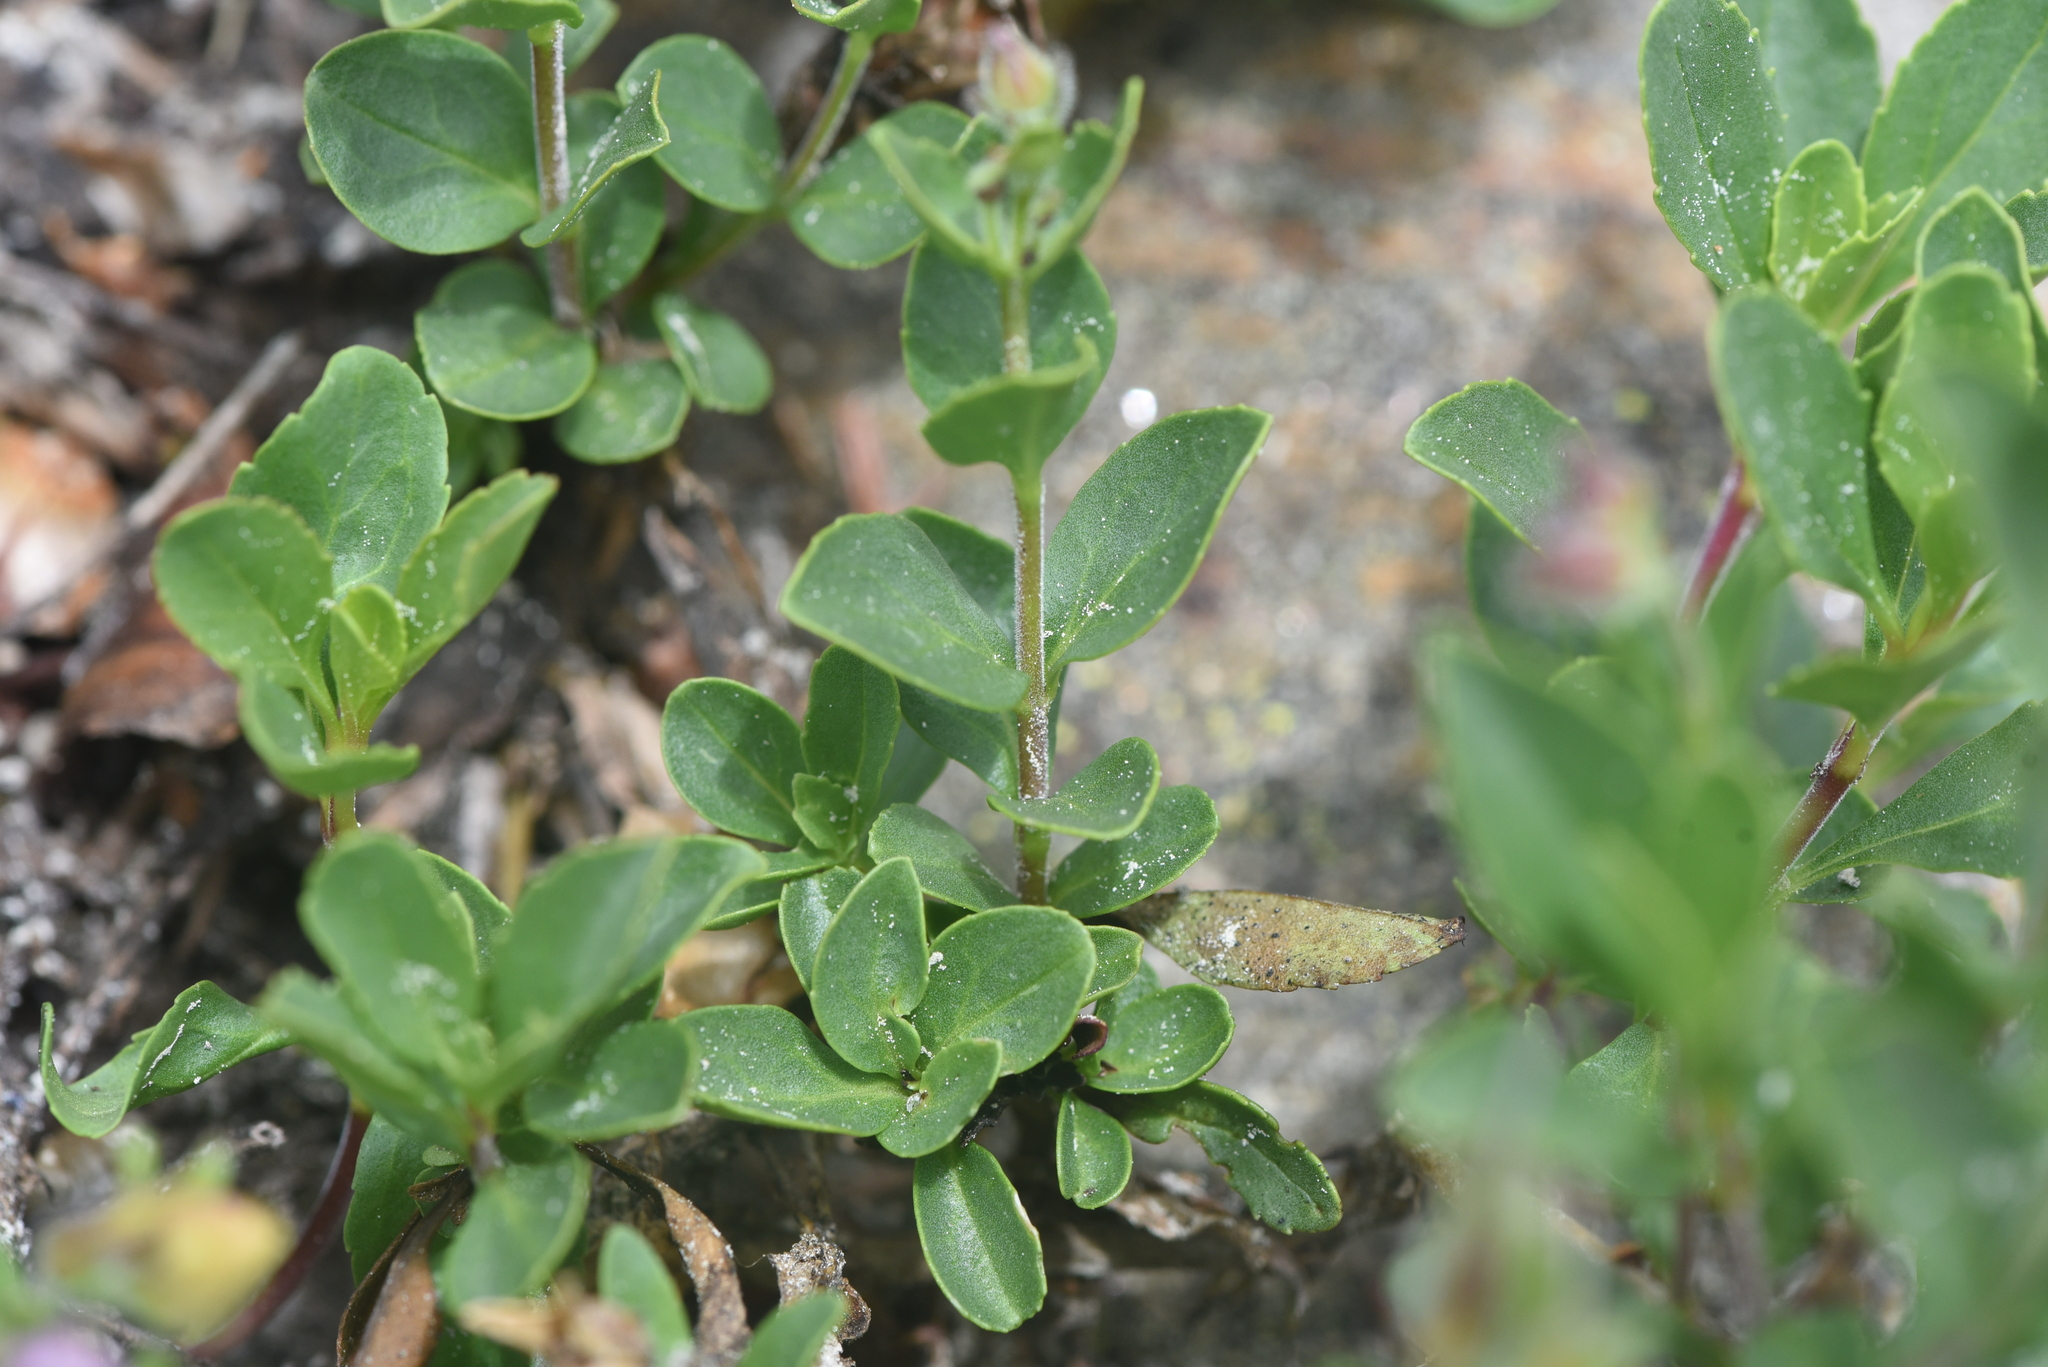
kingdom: Plantae
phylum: Tracheophyta
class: Magnoliopsida
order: Lamiales
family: Plantaginaceae
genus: Penstemon
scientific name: Penstemon ellipticus
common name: Alpine beardtongue
